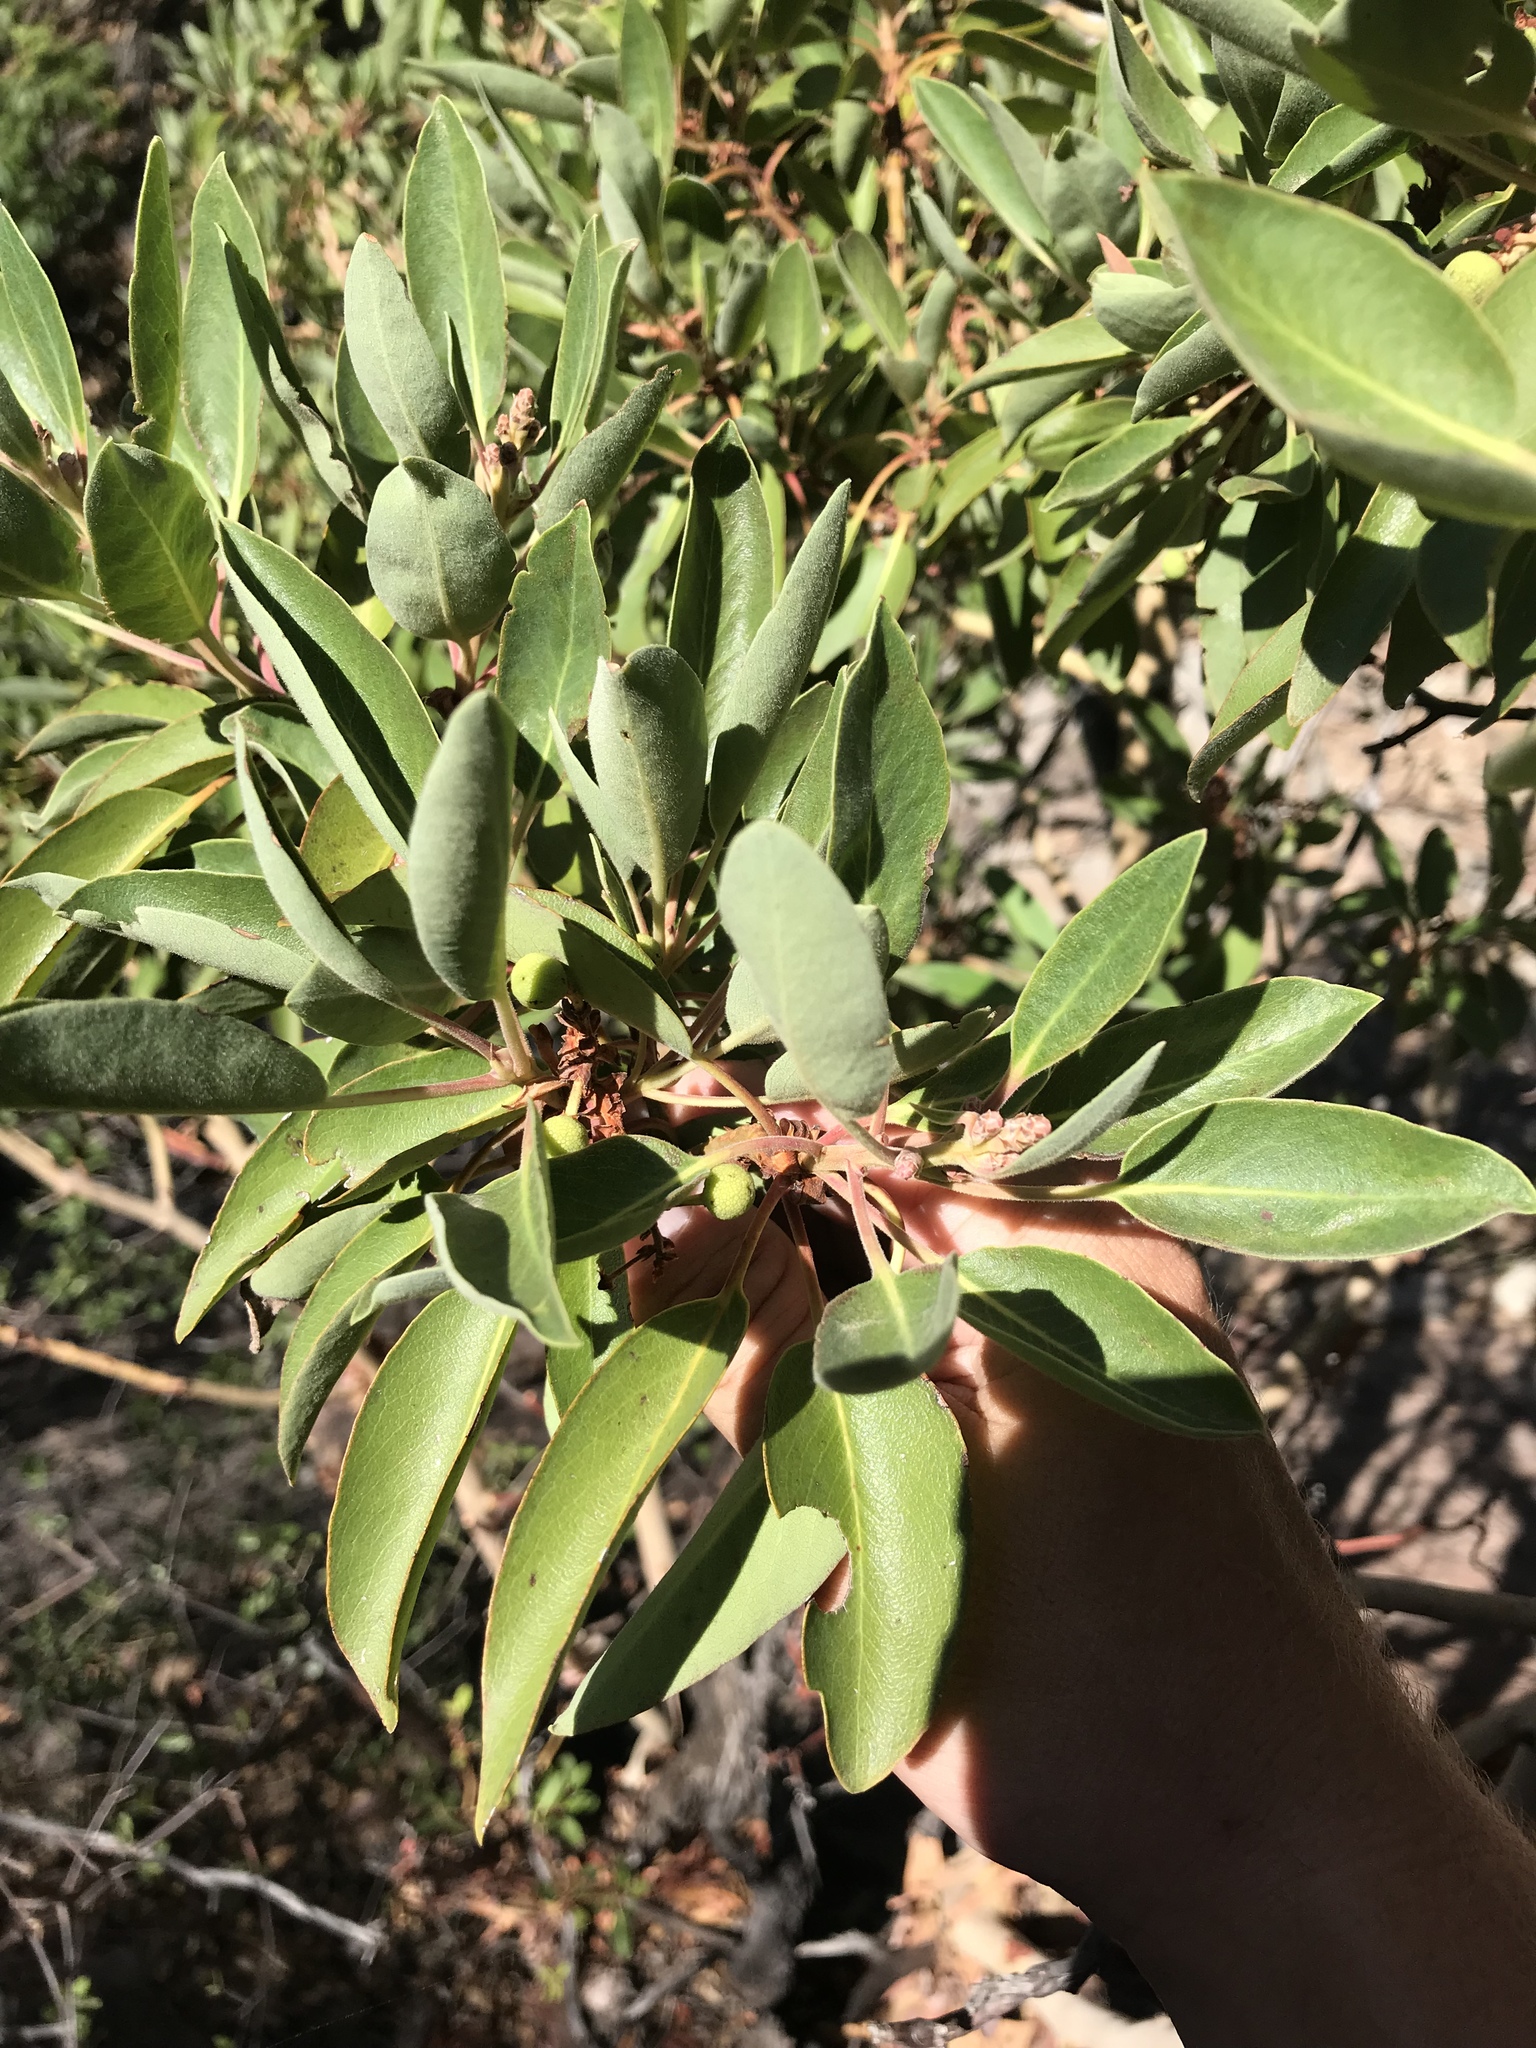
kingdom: Plantae
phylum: Tracheophyta
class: Magnoliopsida
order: Ericales
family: Ericaceae
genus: Arbutus
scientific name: Arbutus xalapensis
